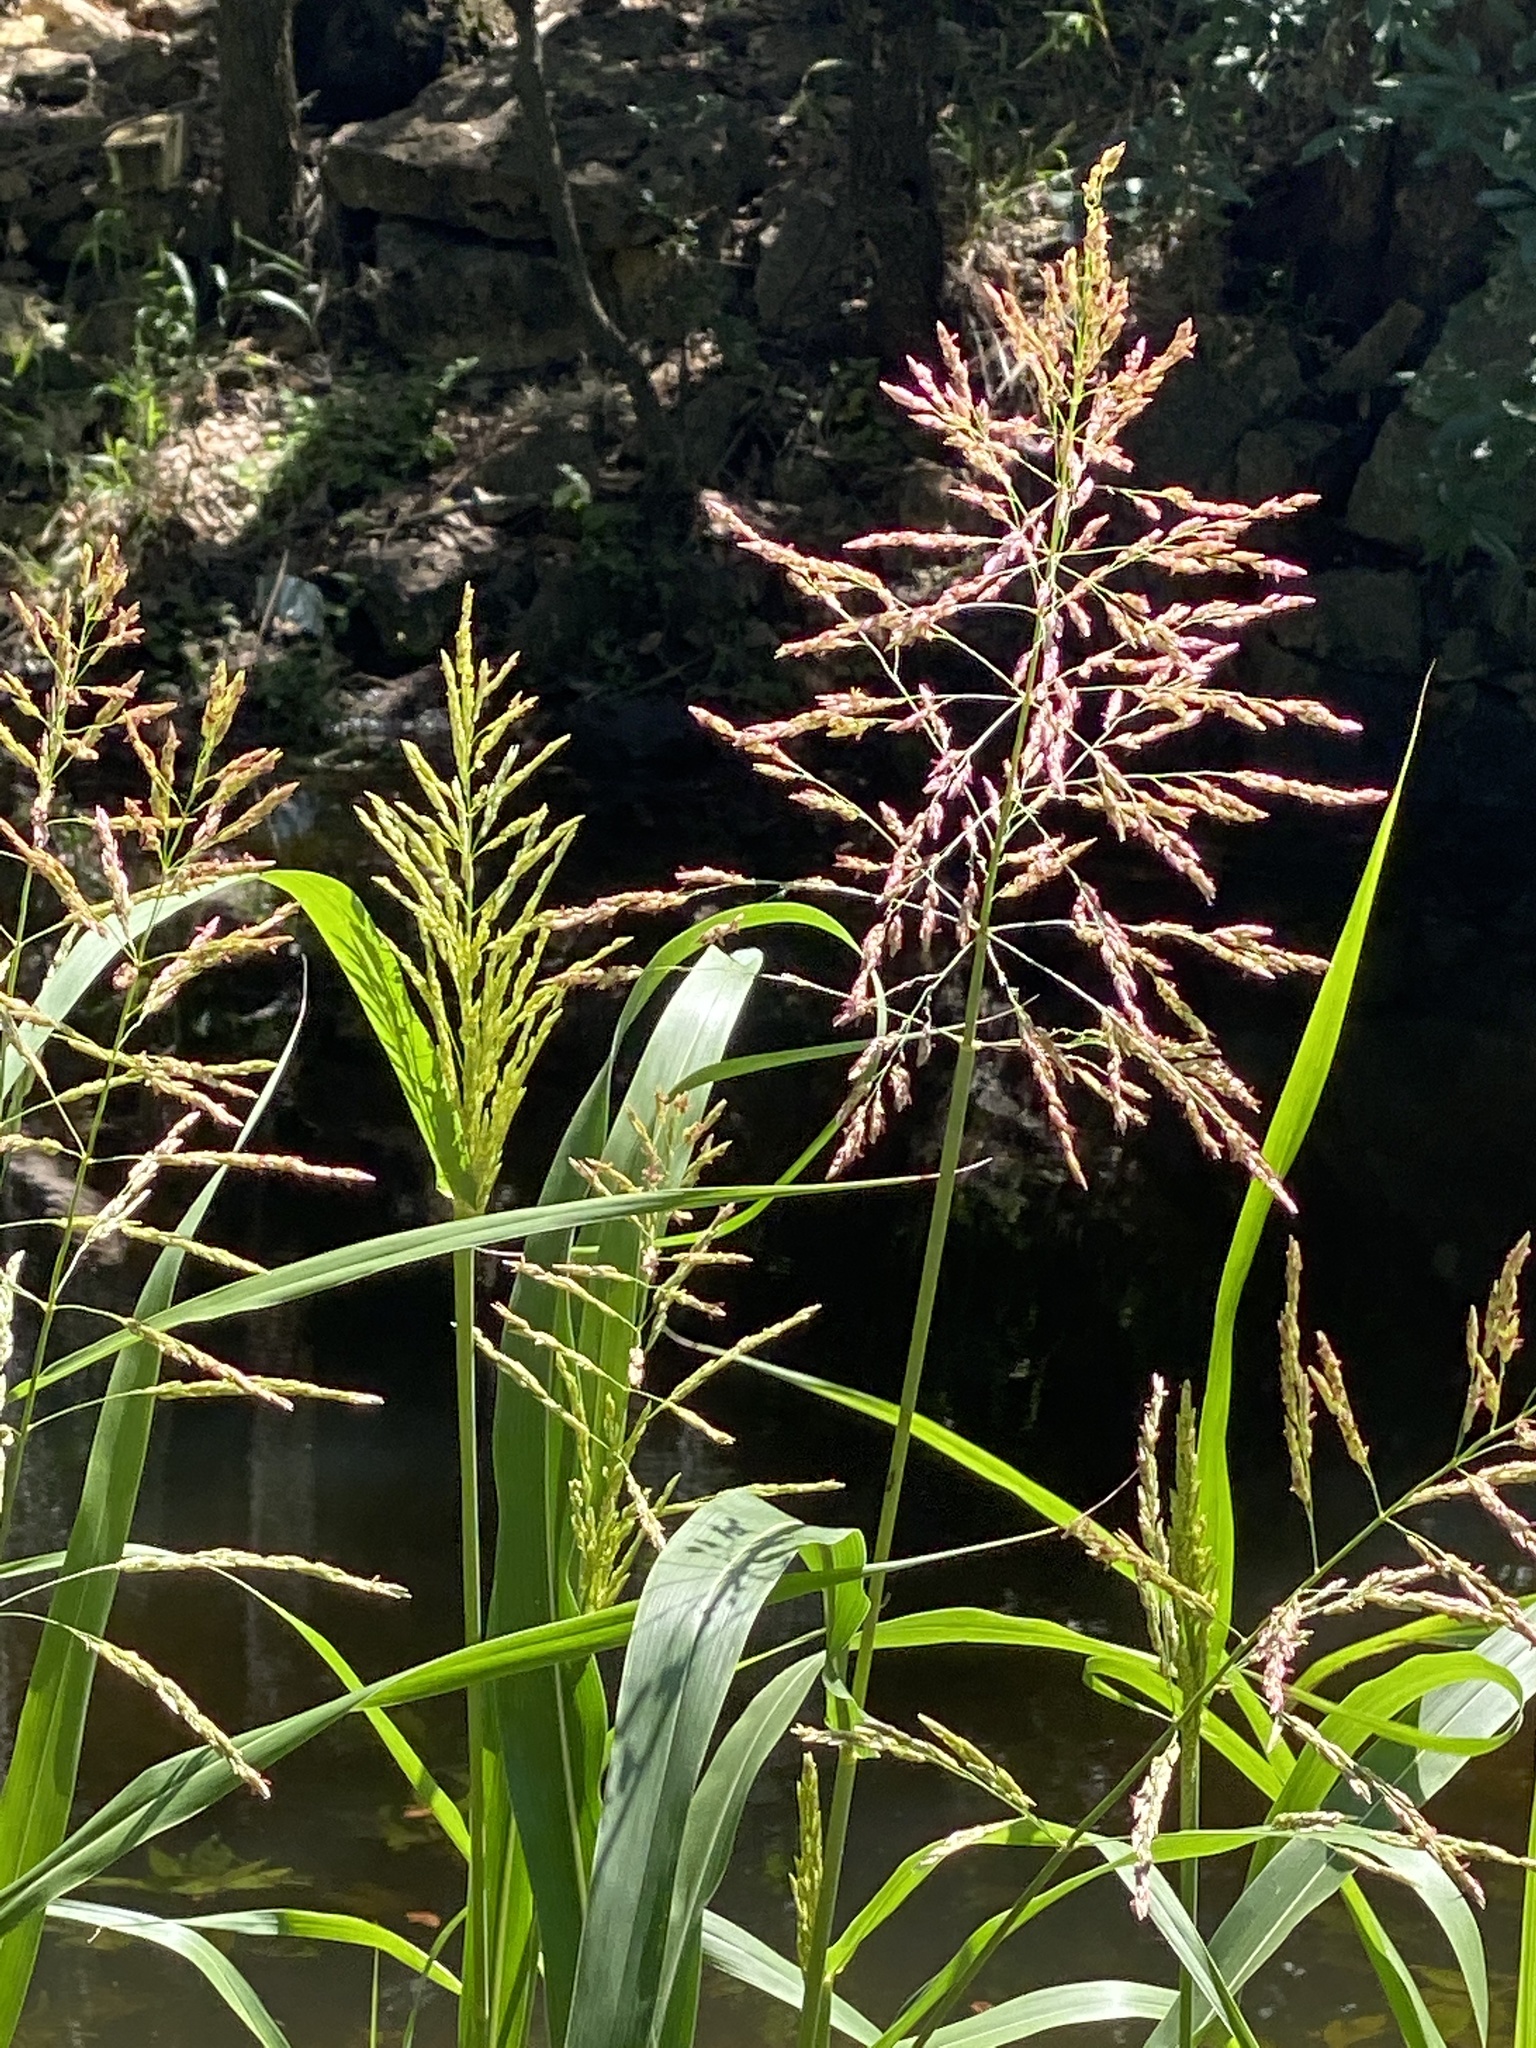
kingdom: Plantae
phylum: Tracheophyta
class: Liliopsida
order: Poales
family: Poaceae
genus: Sorghum
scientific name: Sorghum halepense
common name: Johnson-grass
